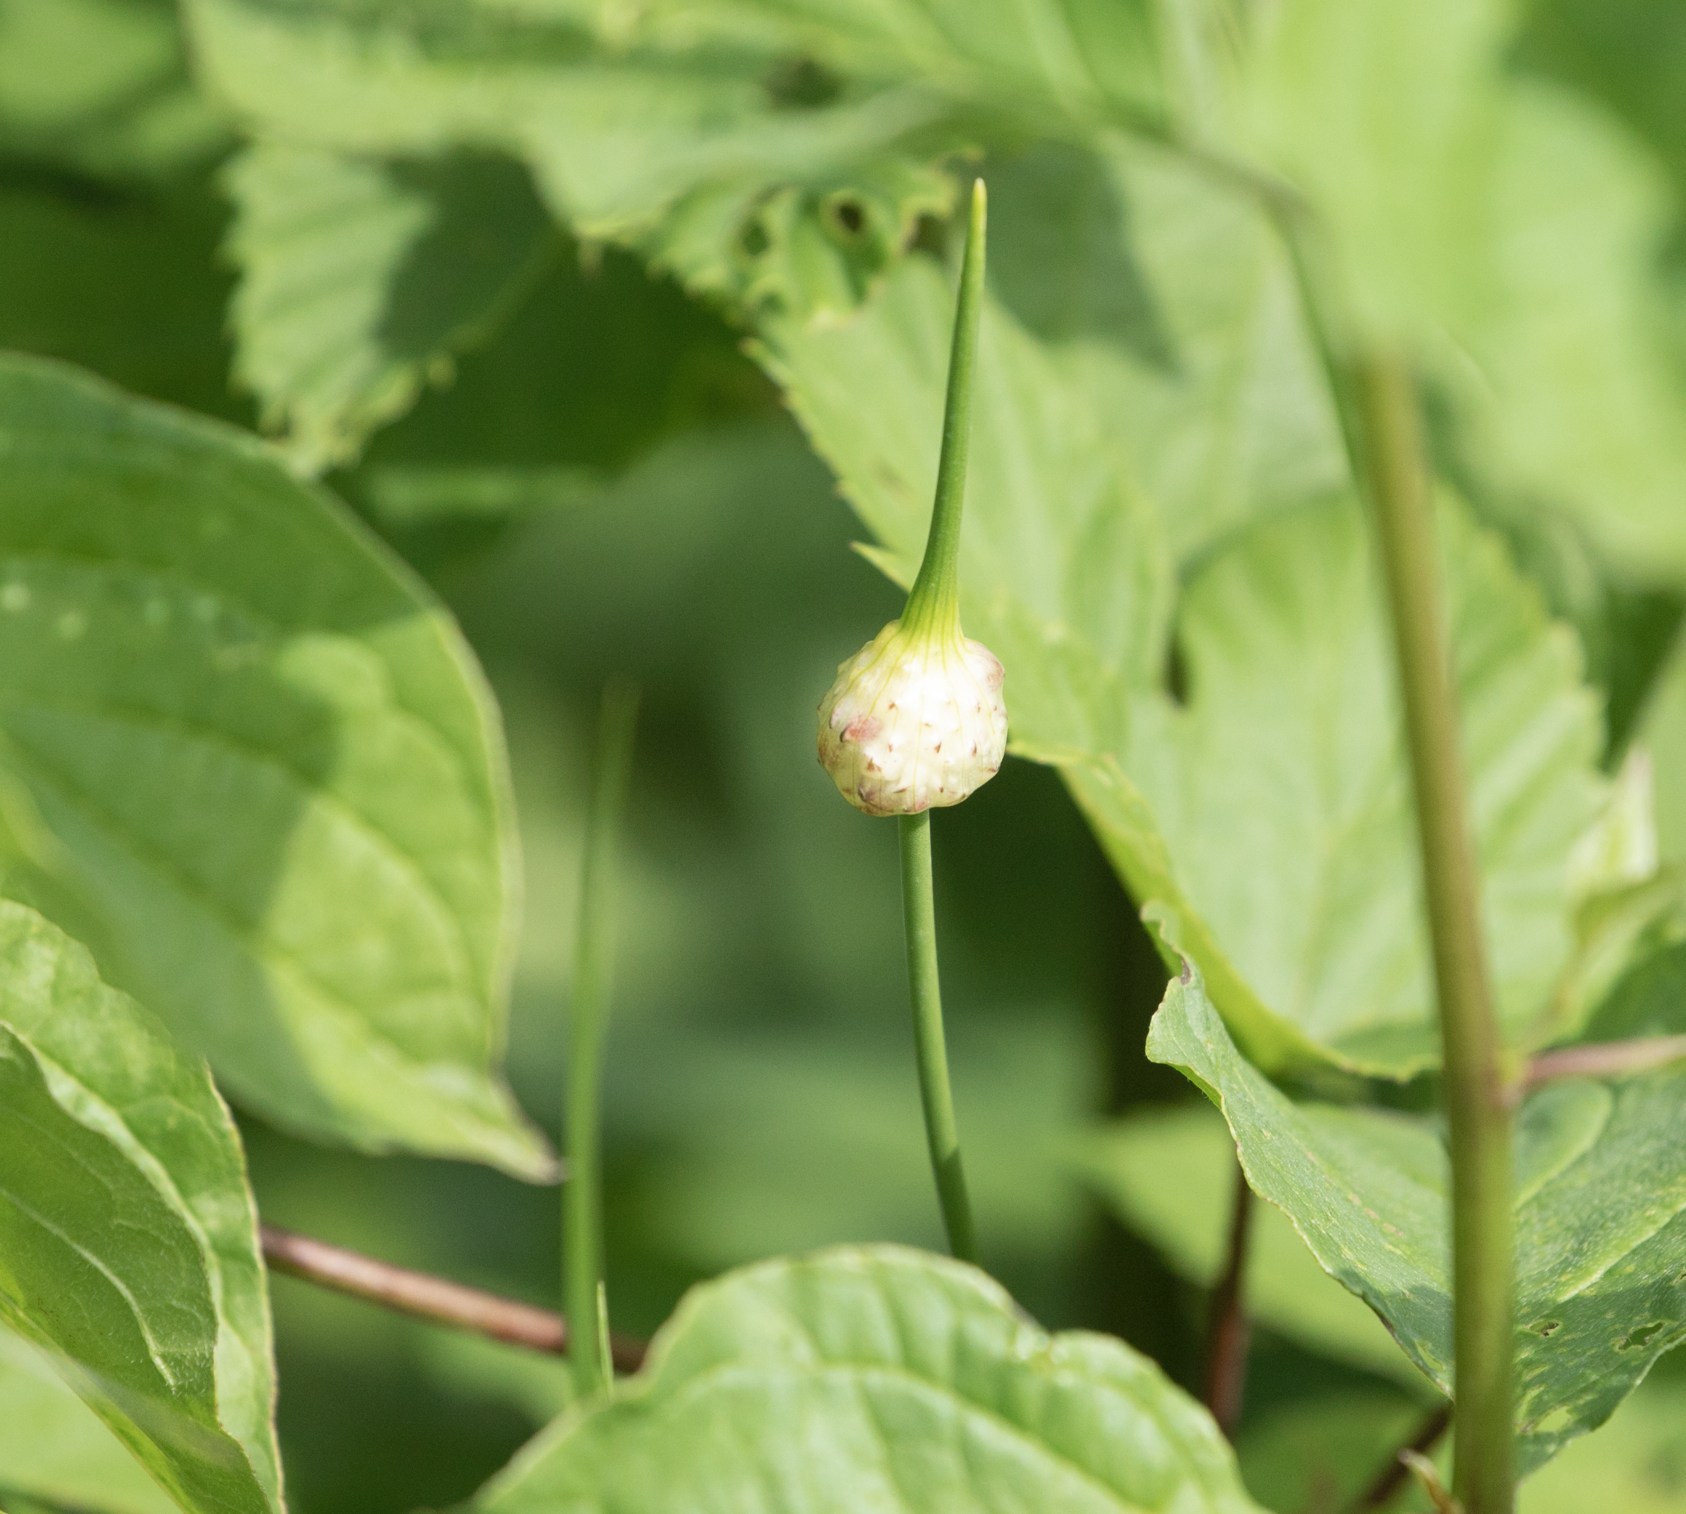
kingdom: Plantae
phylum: Tracheophyta
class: Liliopsida
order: Asparagales
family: Amaryllidaceae
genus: Allium
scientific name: Allium vineale
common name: Crow garlic
